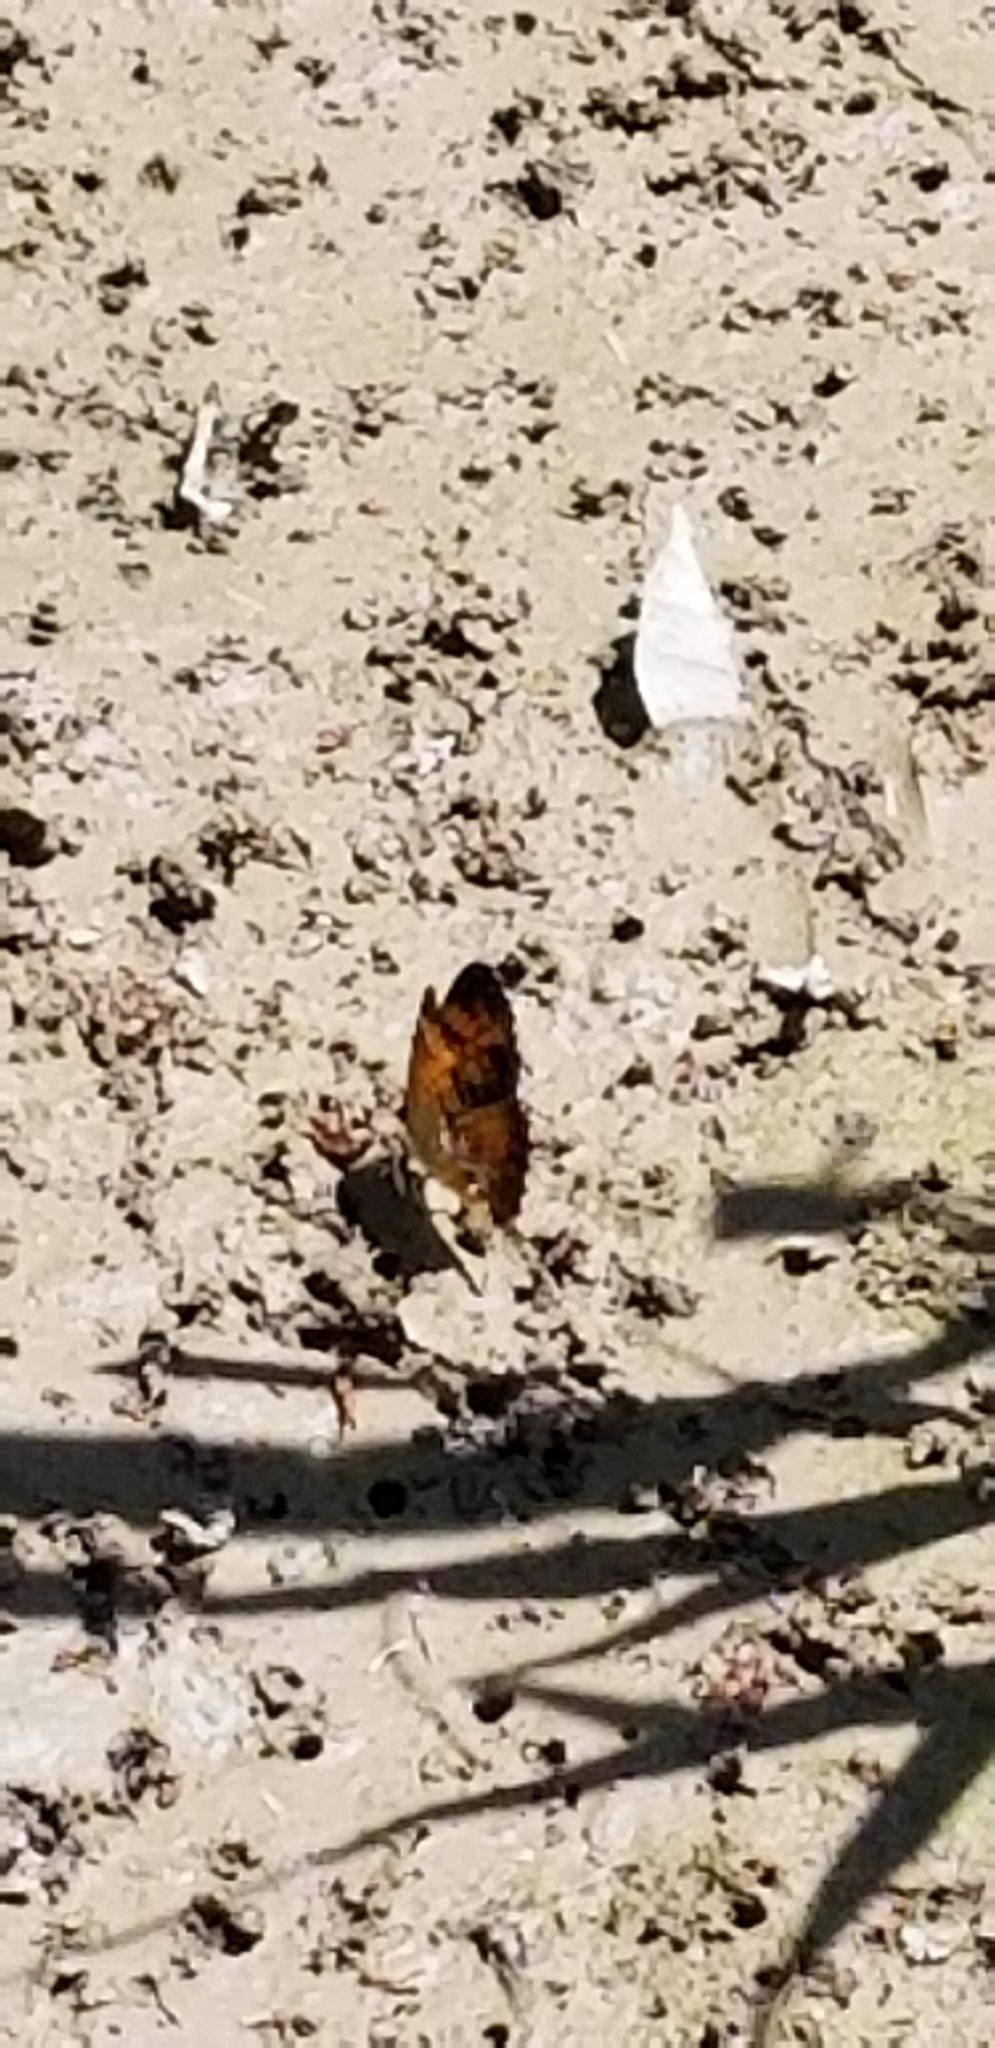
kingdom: Animalia
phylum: Arthropoda
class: Insecta
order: Lepidoptera
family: Nymphalidae
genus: Phyciodes
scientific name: Phyciodes tharos
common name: Pearl crescent
